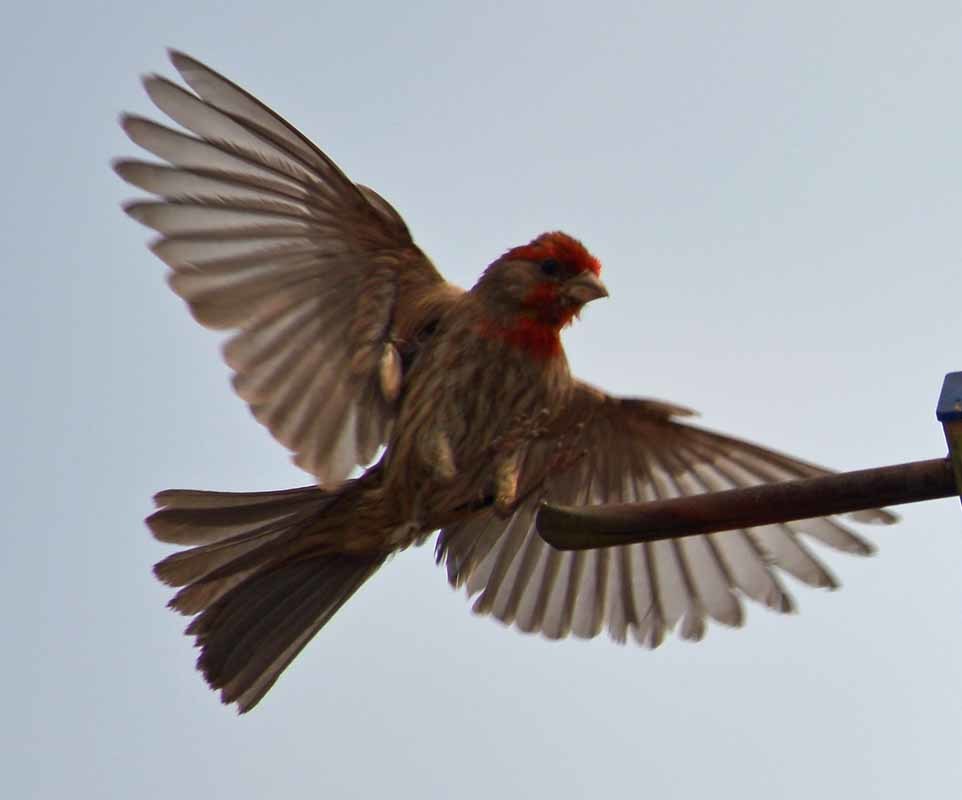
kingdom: Animalia
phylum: Chordata
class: Aves
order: Passeriformes
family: Fringillidae
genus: Haemorhous
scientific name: Haemorhous mexicanus
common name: House finch
